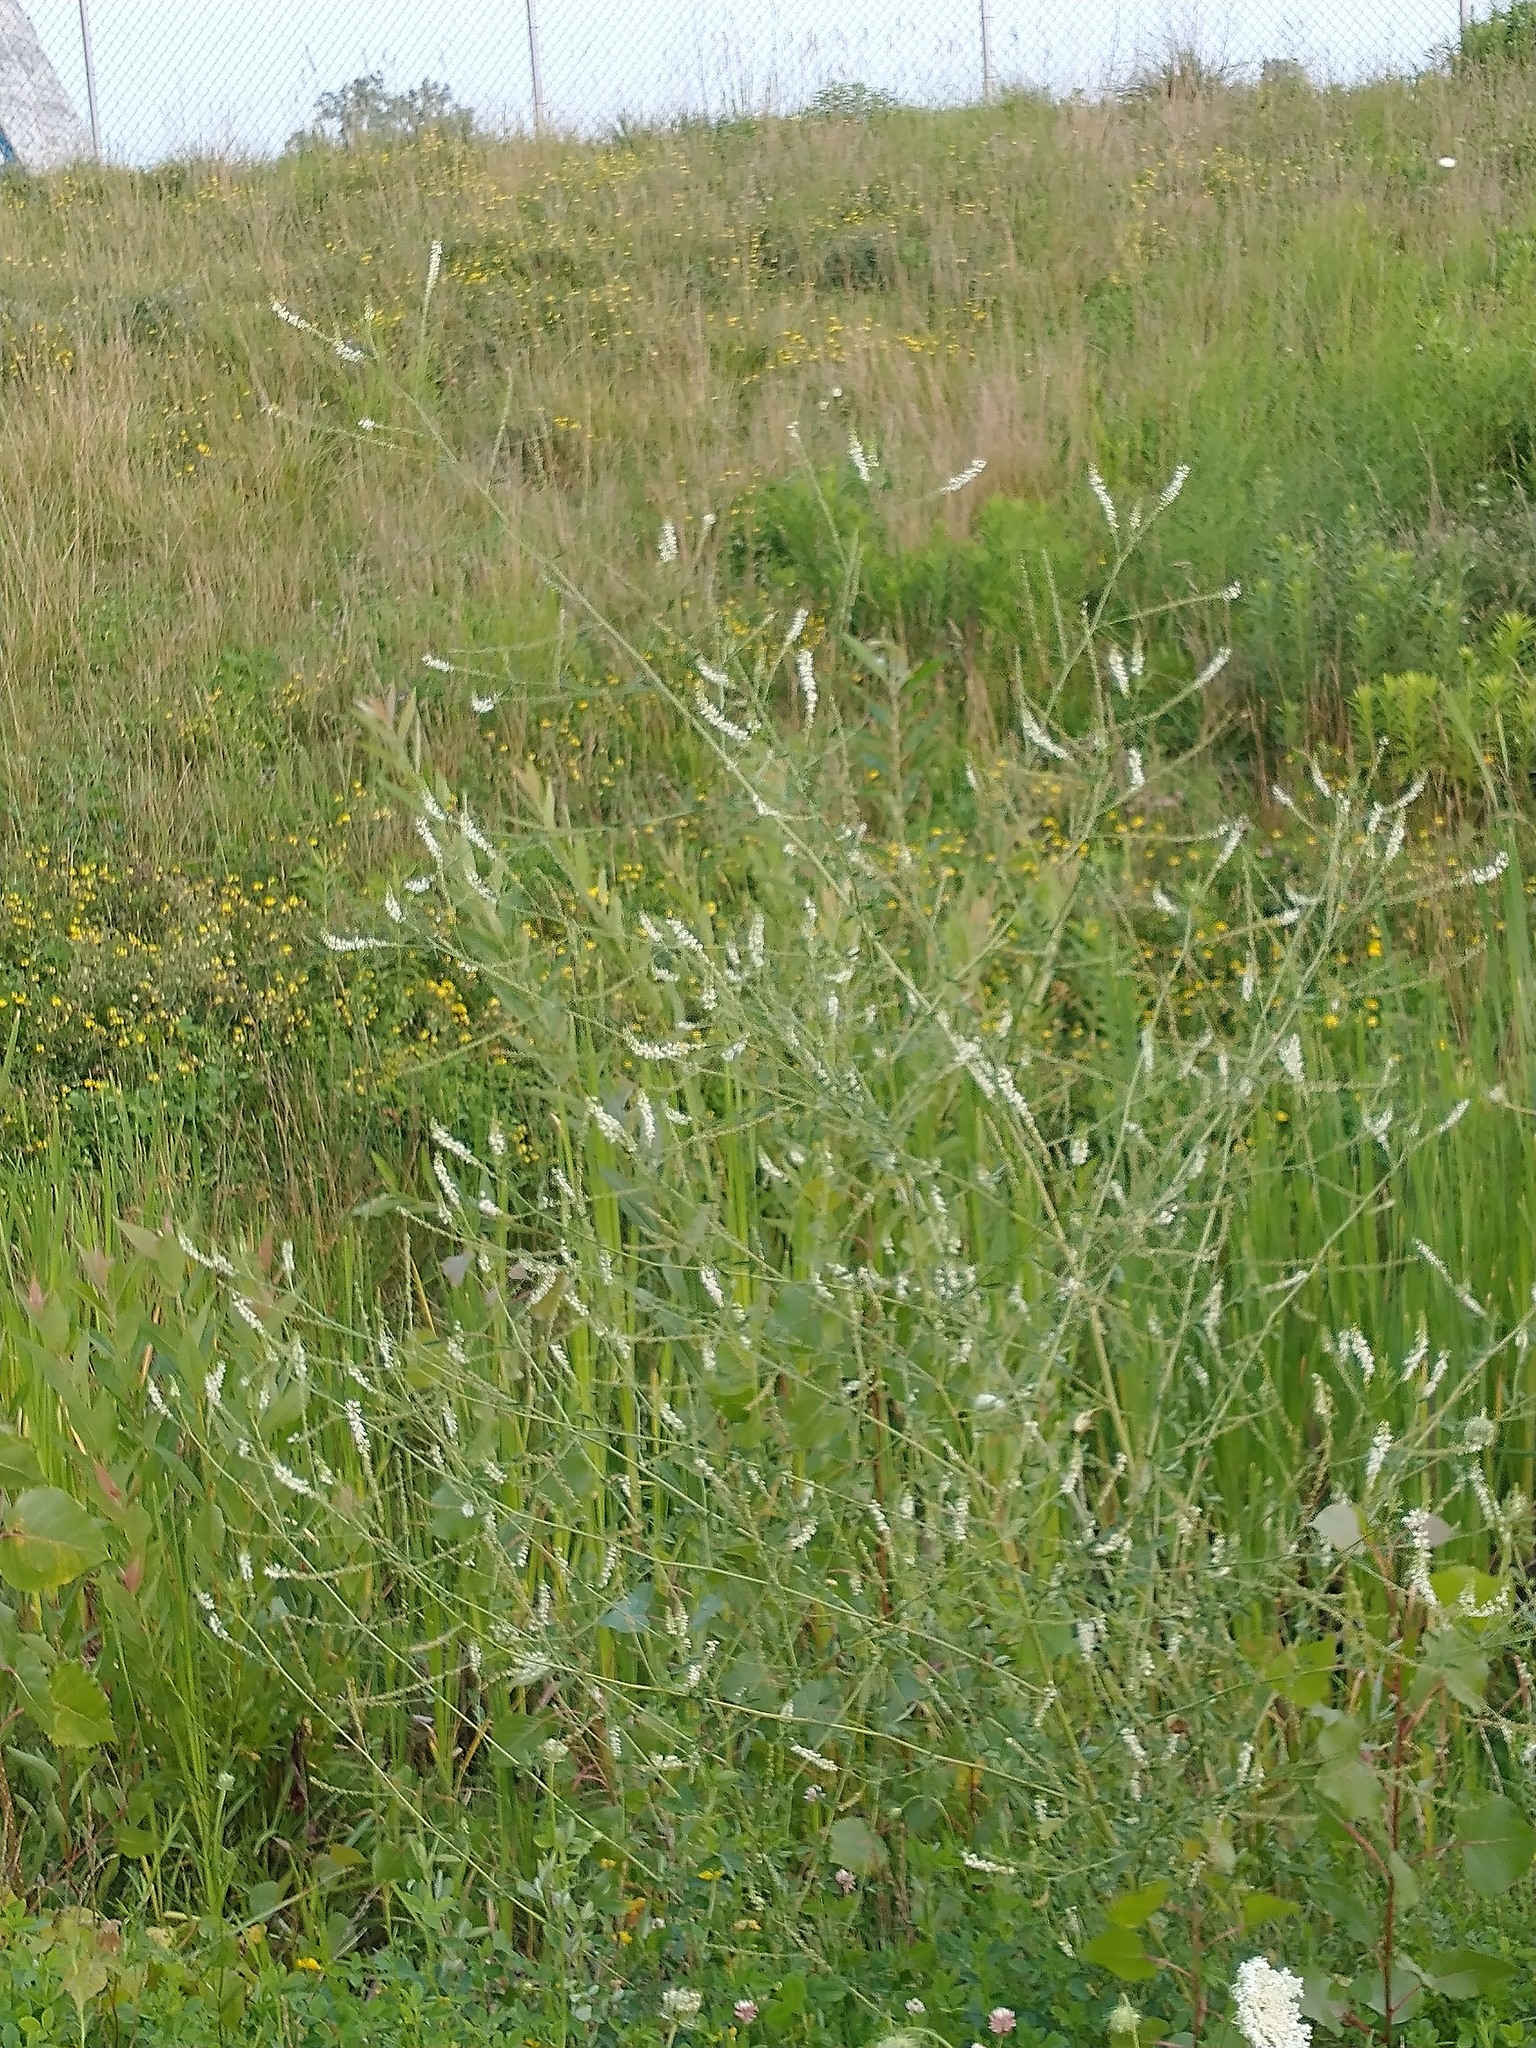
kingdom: Plantae
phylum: Tracheophyta
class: Magnoliopsida
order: Fabales
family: Fabaceae
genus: Melilotus
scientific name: Melilotus albus
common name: White melilot
